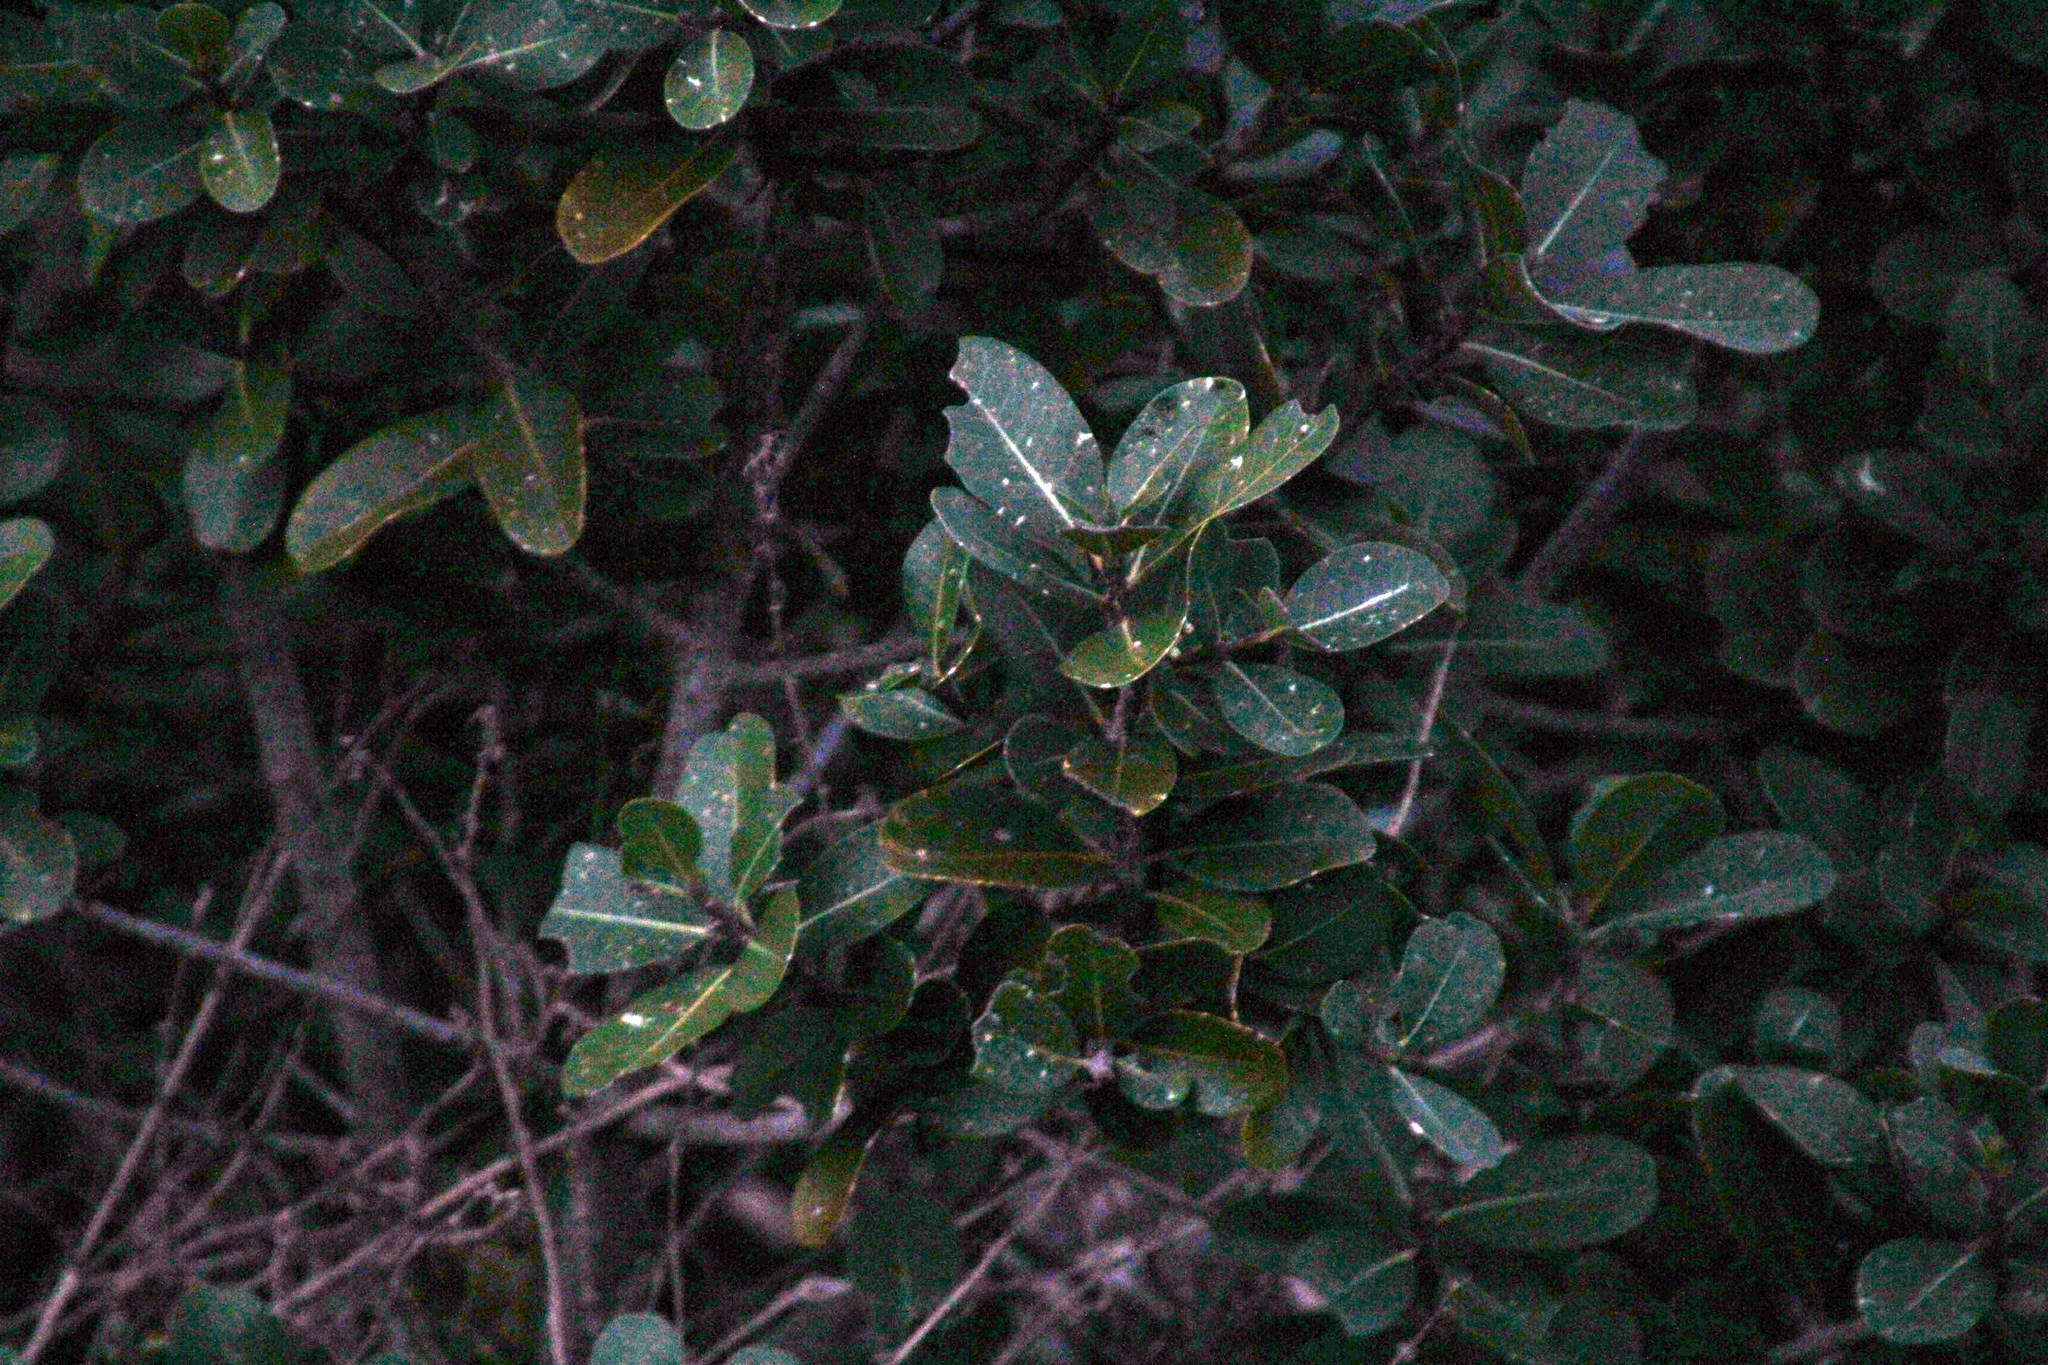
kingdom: Plantae
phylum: Tracheophyta
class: Magnoliopsida
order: Ericales
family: Sapotaceae
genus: Sideroxylon
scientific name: Sideroxylon inerme
